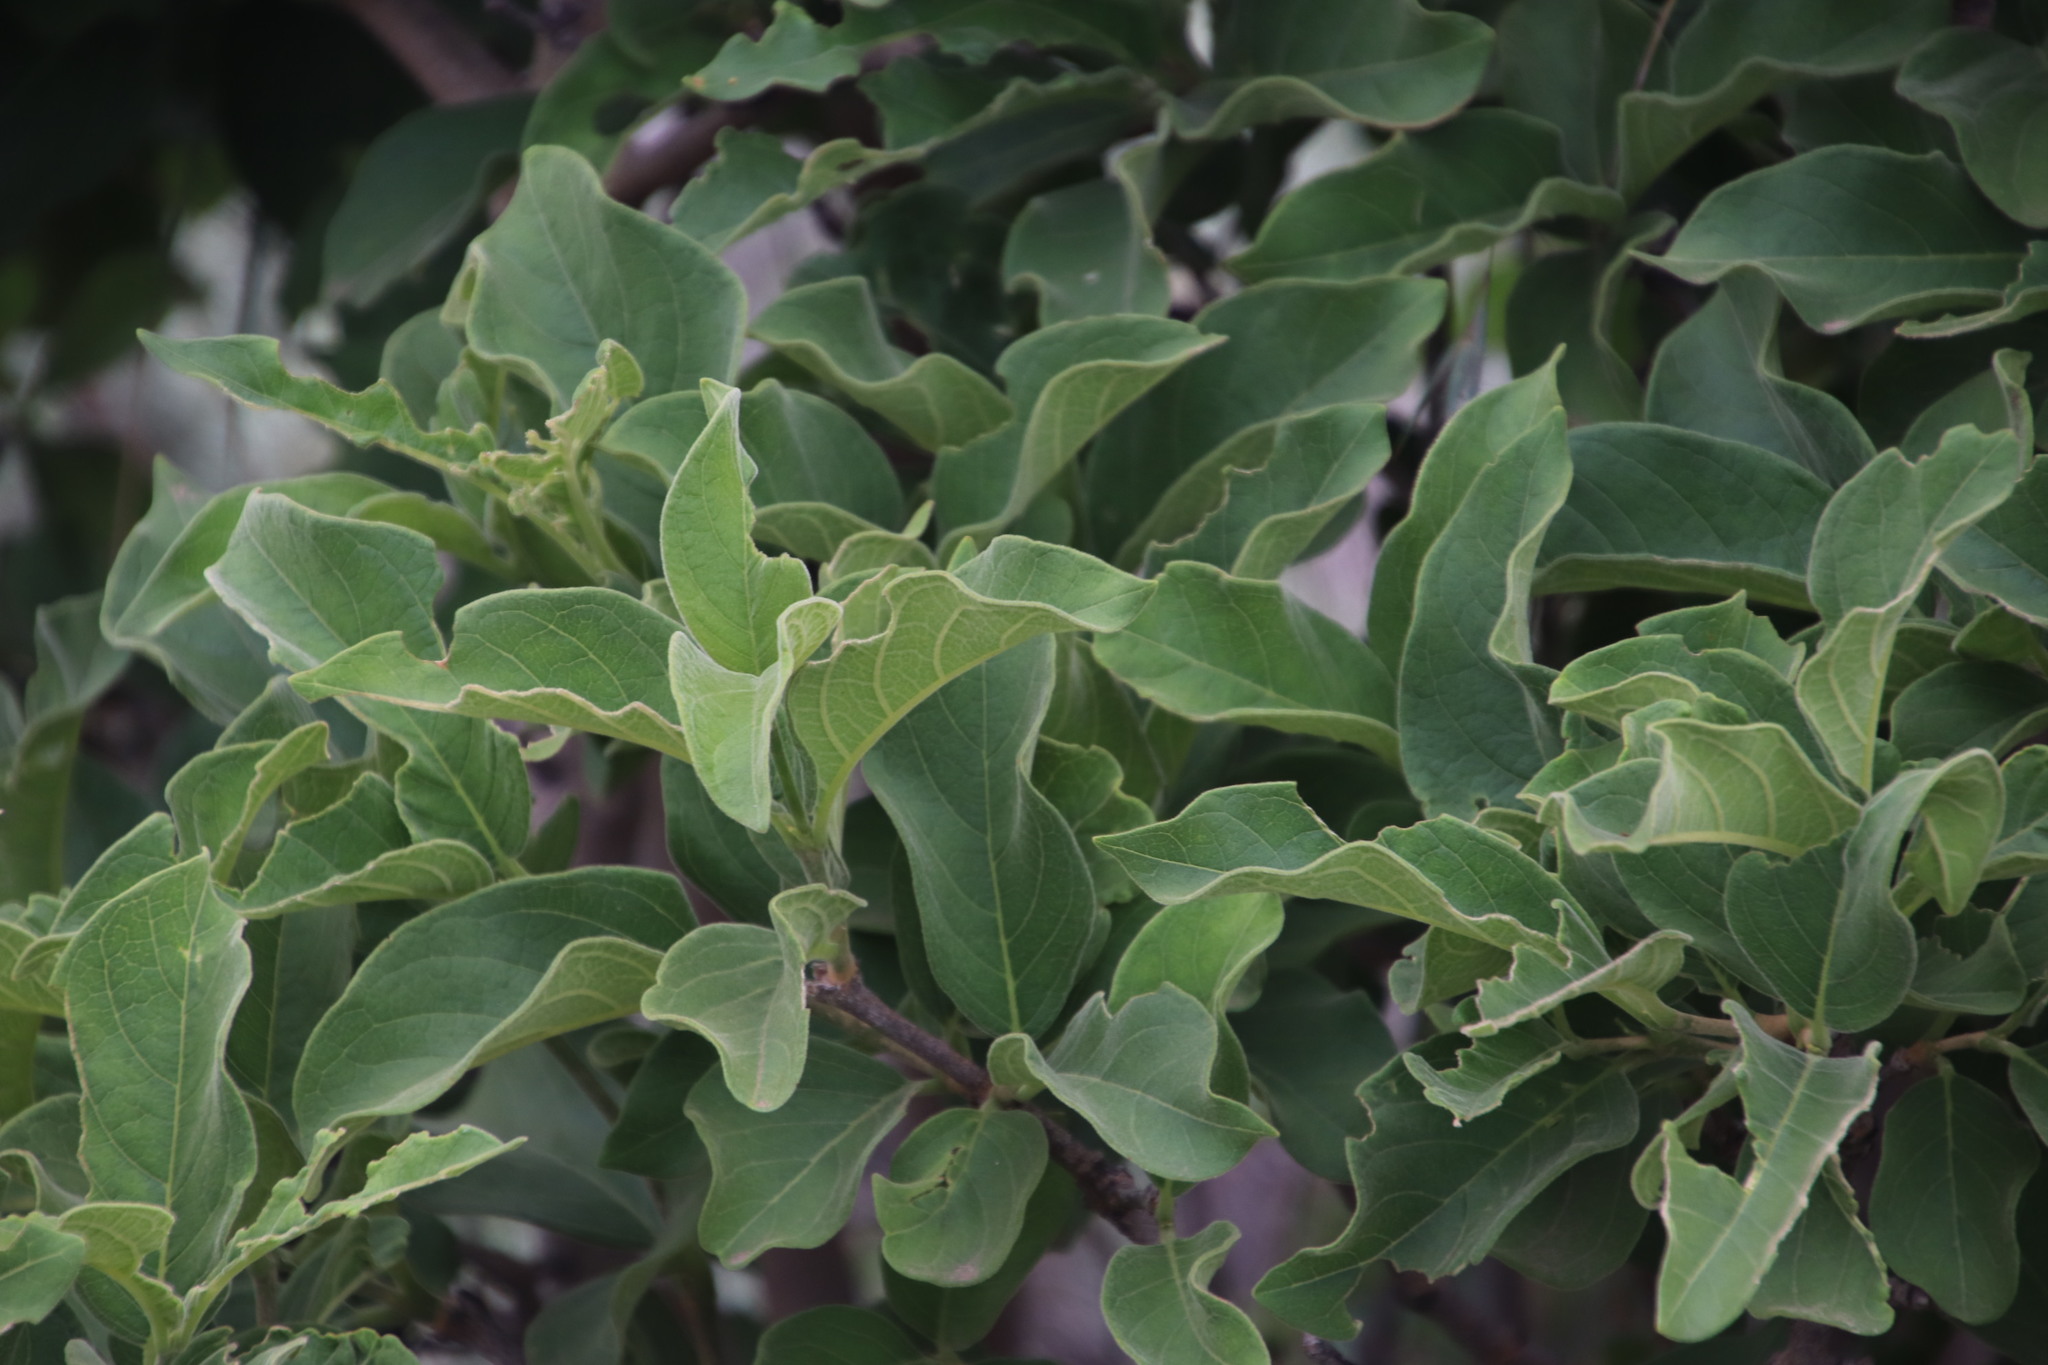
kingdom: Plantae
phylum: Tracheophyta
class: Magnoliopsida
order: Gentianales
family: Rubiaceae
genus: Vangueria
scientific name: Vangueria infausta
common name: Medlar
